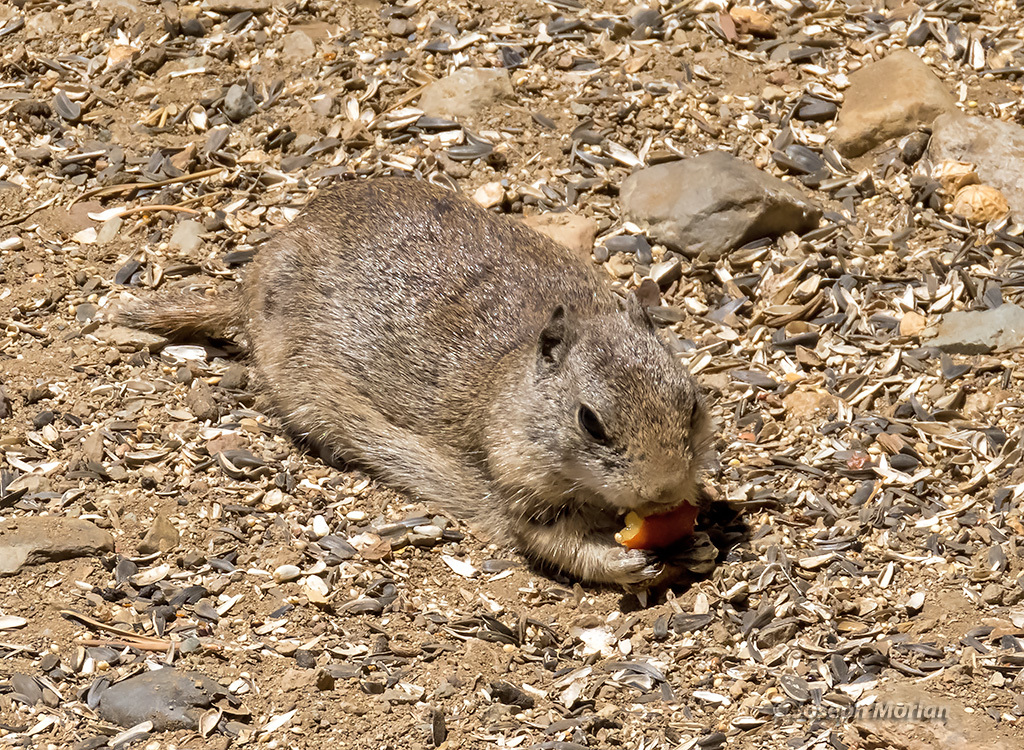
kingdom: Animalia
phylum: Chordata
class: Mammalia
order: Rodentia
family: Sciuridae
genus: Urocitellus
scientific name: Urocitellus beldingi
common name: Belding's ground squirrel
